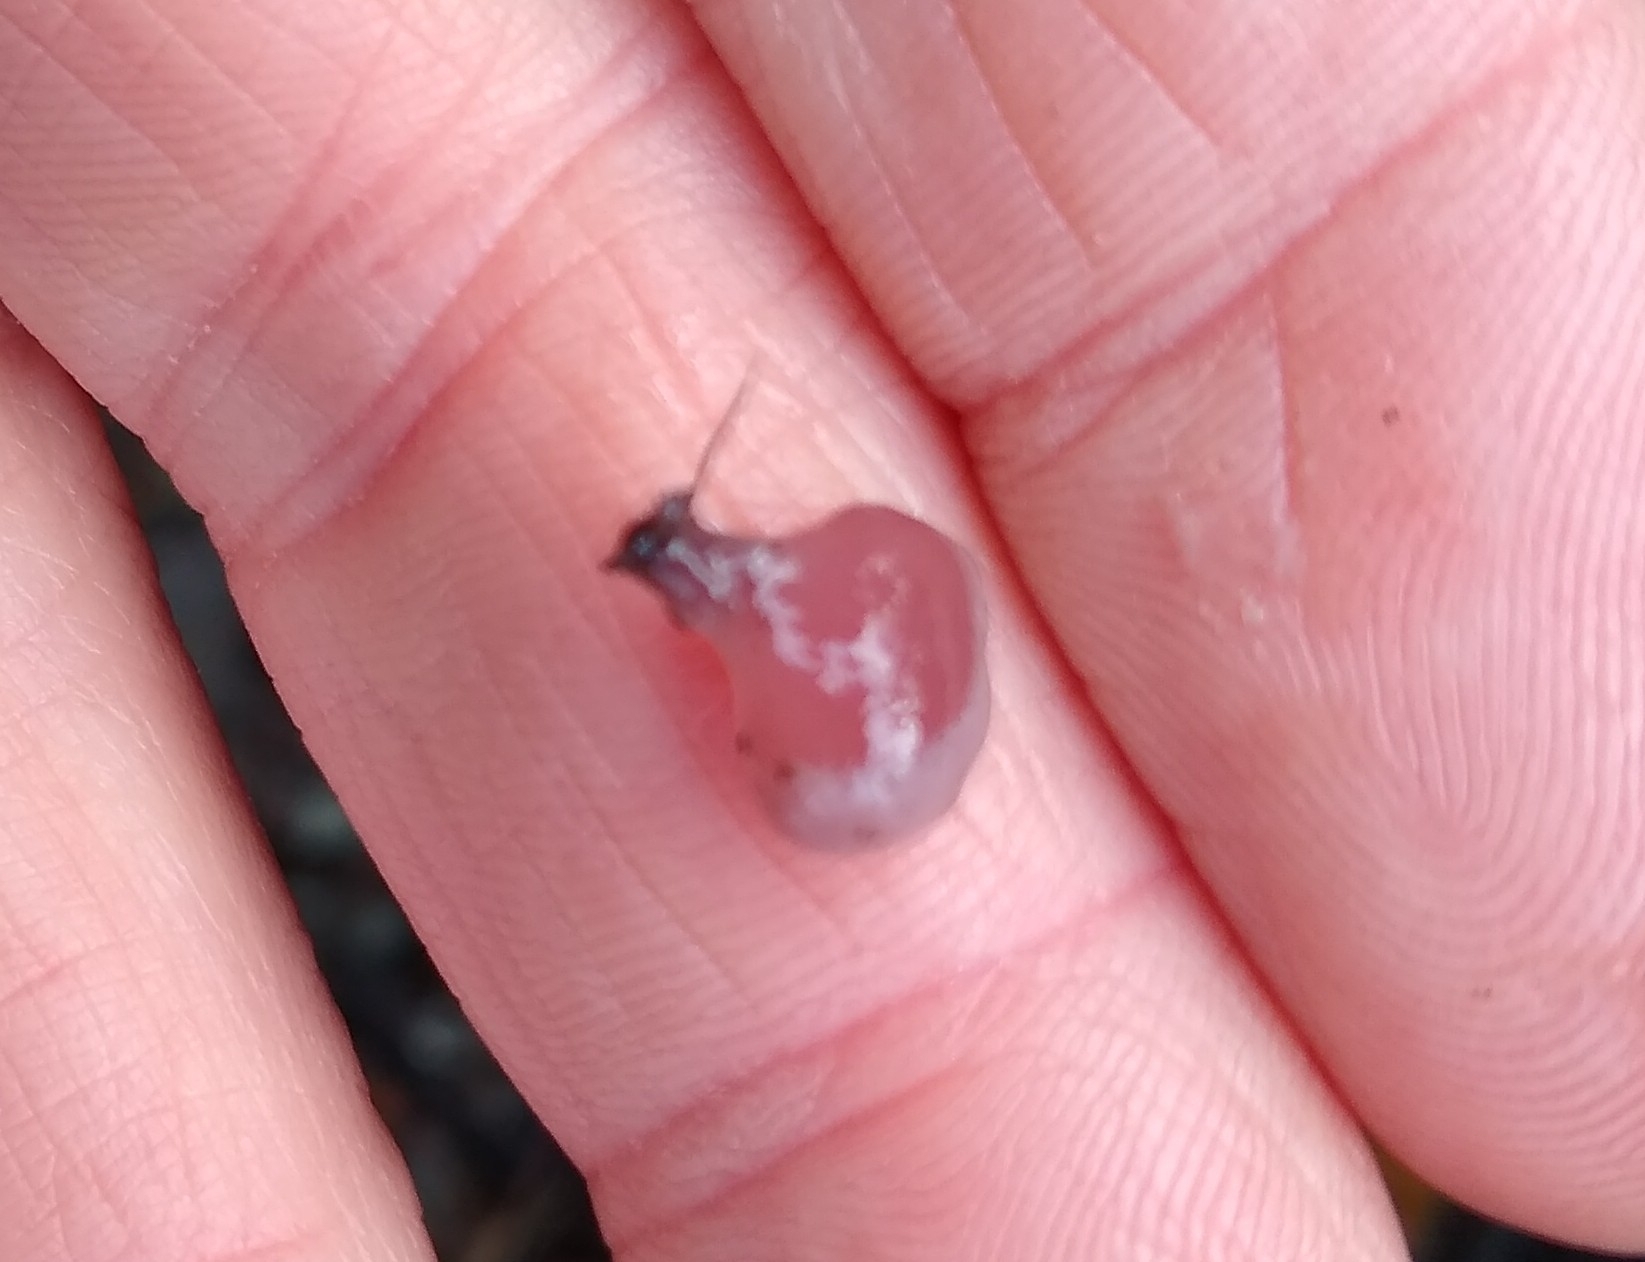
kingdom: Fungi
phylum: Ascomycota
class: Leotiomycetes
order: Helotiales
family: Gelatinodiscaceae
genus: Ascocoryne
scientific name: Ascocoryne sarcoides
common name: Purple jellydisc
